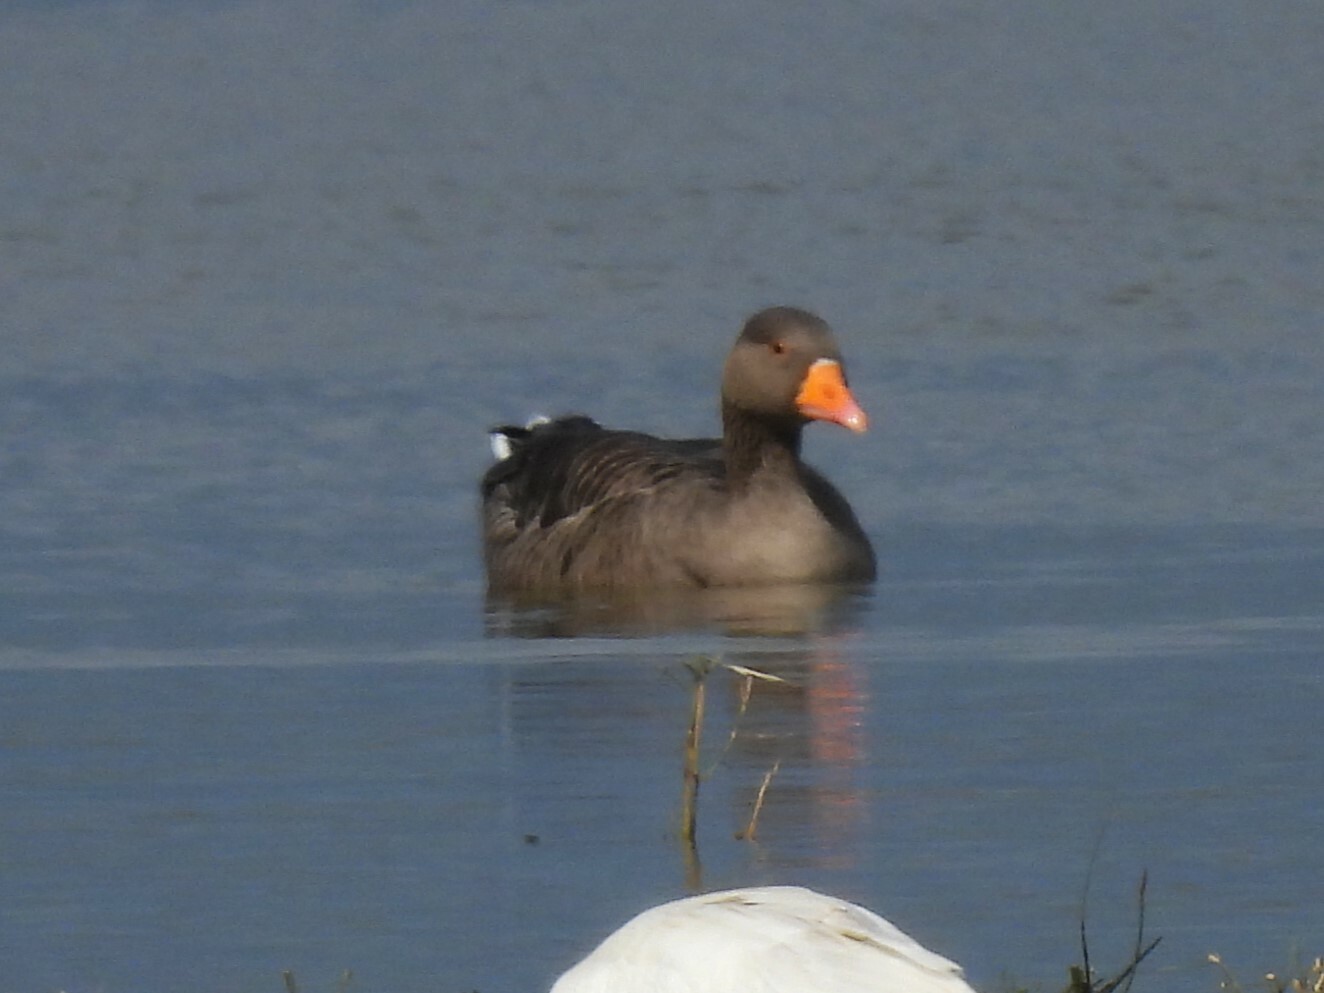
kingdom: Animalia
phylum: Chordata
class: Aves
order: Anseriformes
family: Anatidae
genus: Anser
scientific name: Anser anser
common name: Greylag goose
